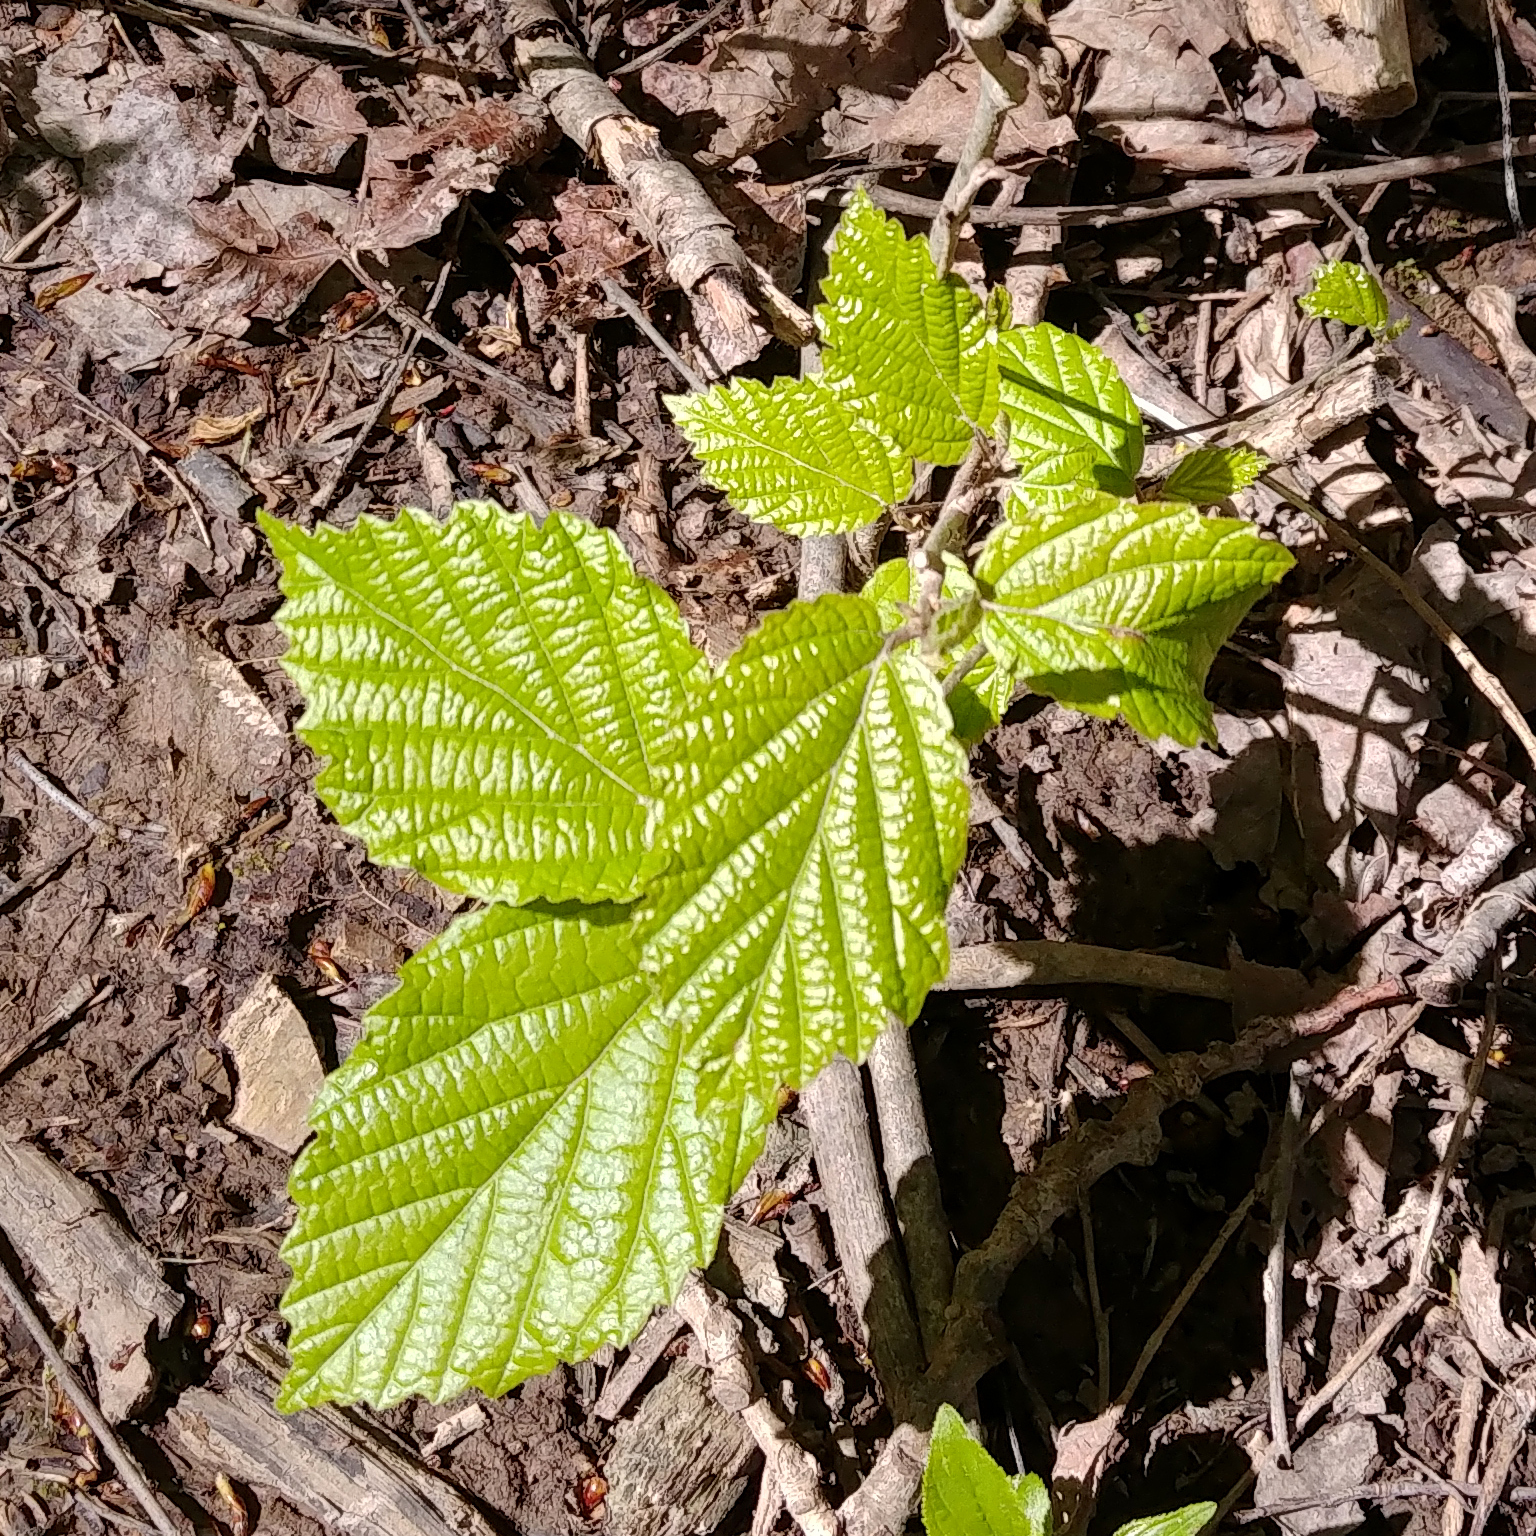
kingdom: Plantae
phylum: Tracheophyta
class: Magnoliopsida
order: Saxifragales
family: Hamamelidaceae
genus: Hamamelis
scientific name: Hamamelis virginiana
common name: Witch-hazel
